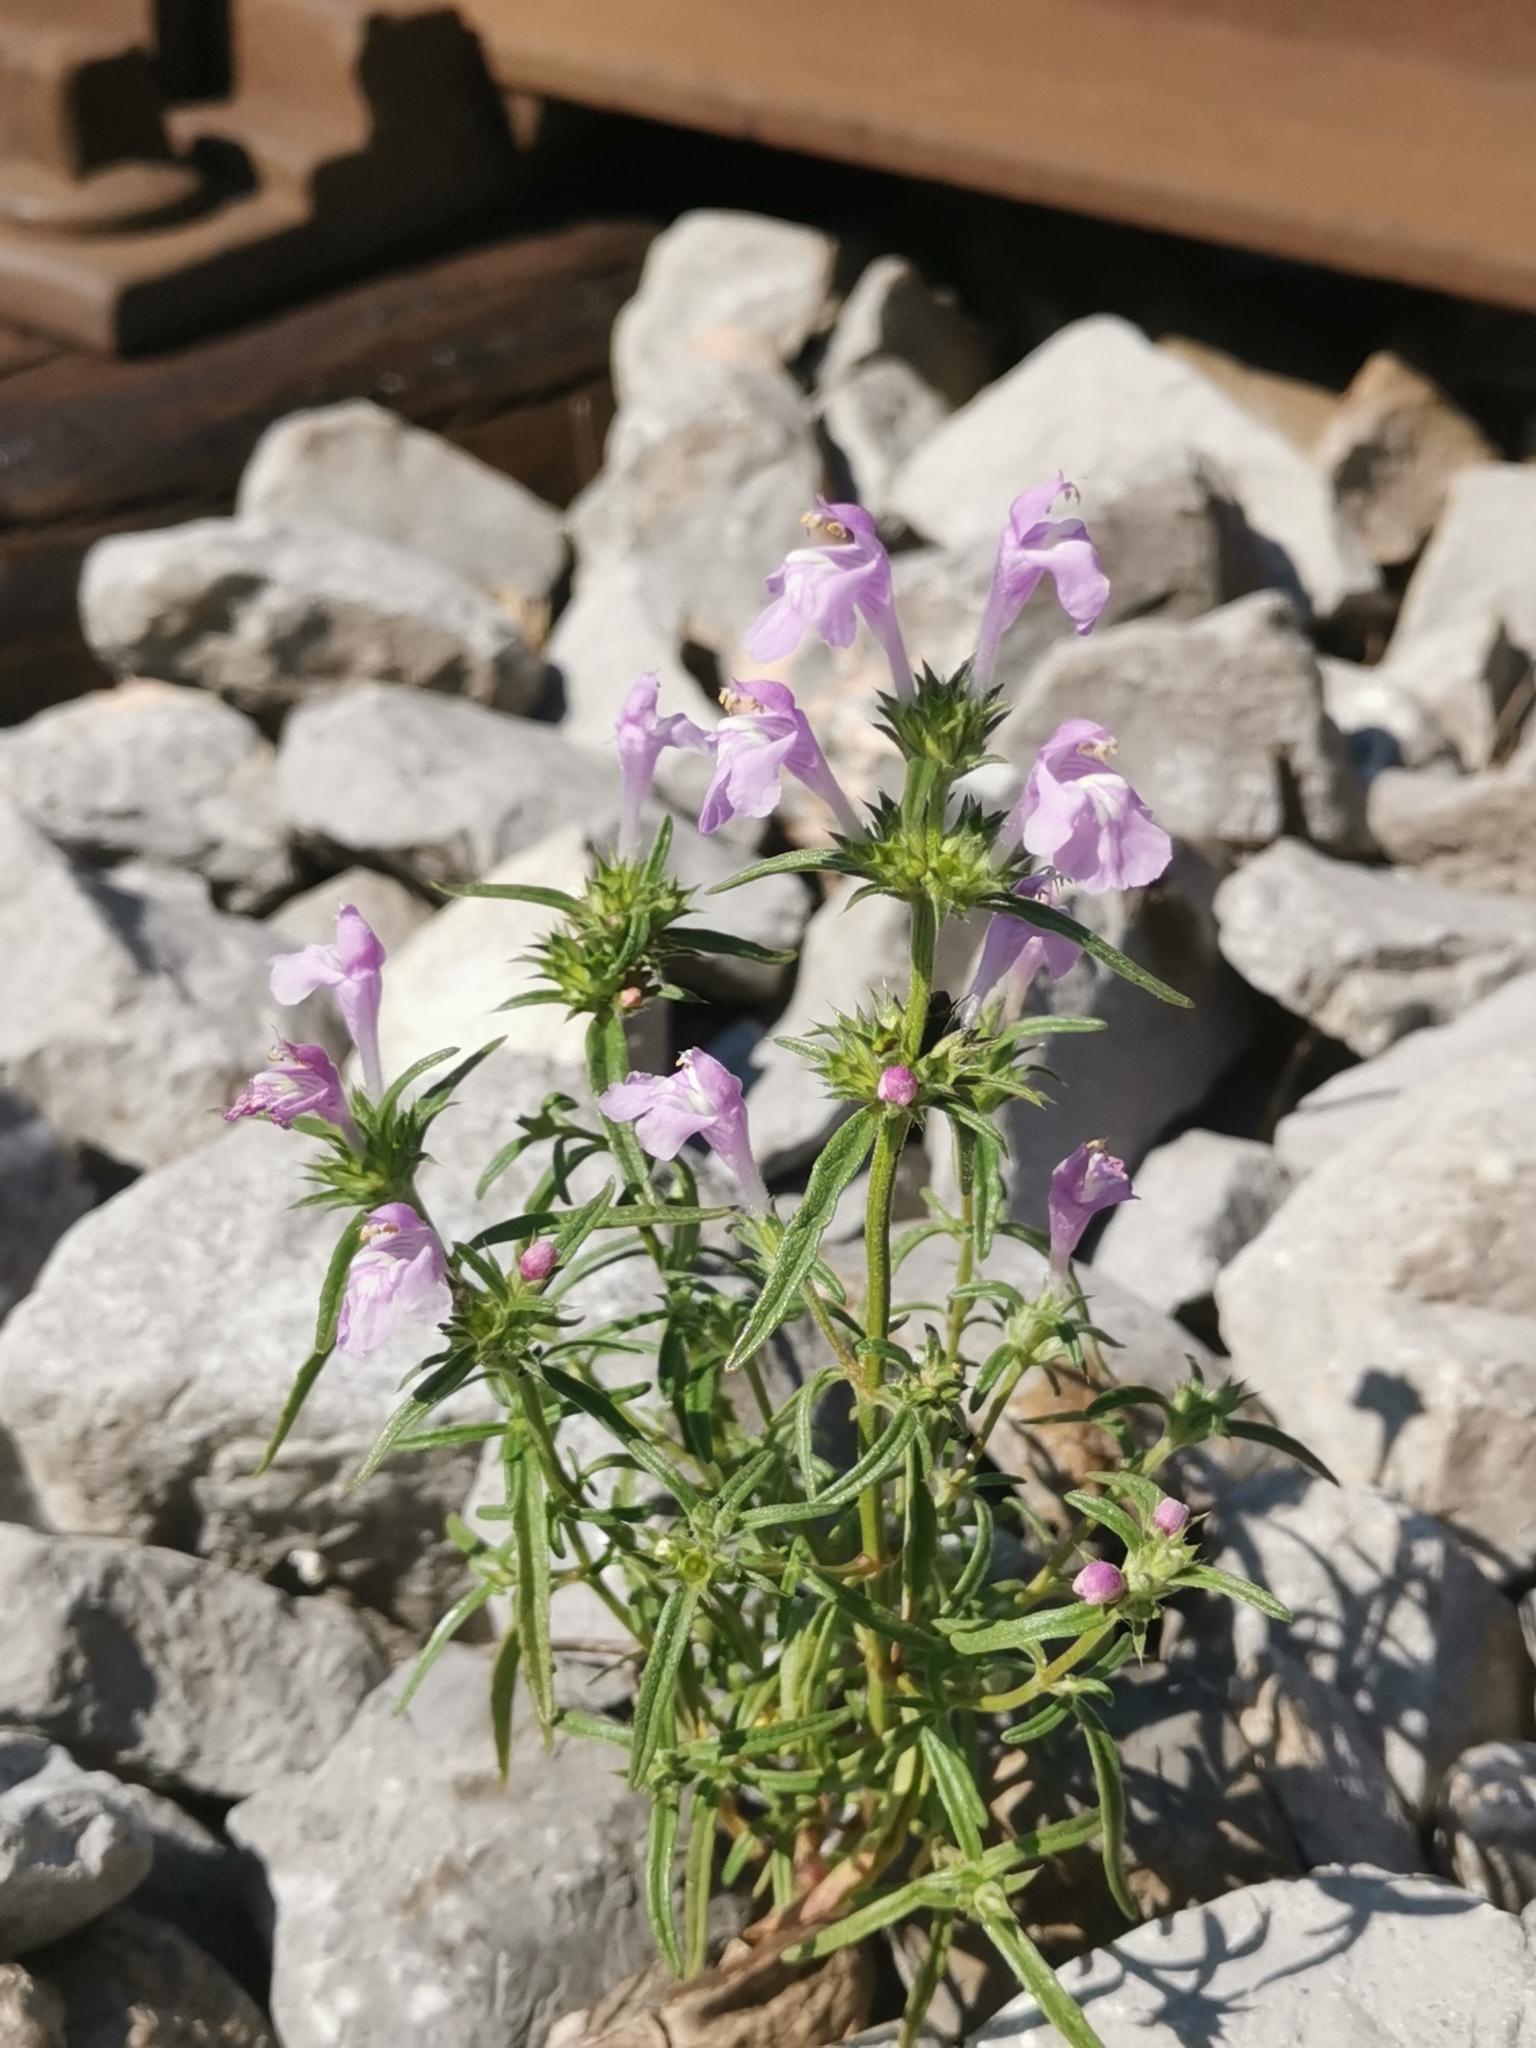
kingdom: Plantae
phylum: Tracheophyta
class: Magnoliopsida
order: Lamiales
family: Lamiaceae
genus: Galeopsis
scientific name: Galeopsis angustifolia
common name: Red hemp-nettle
